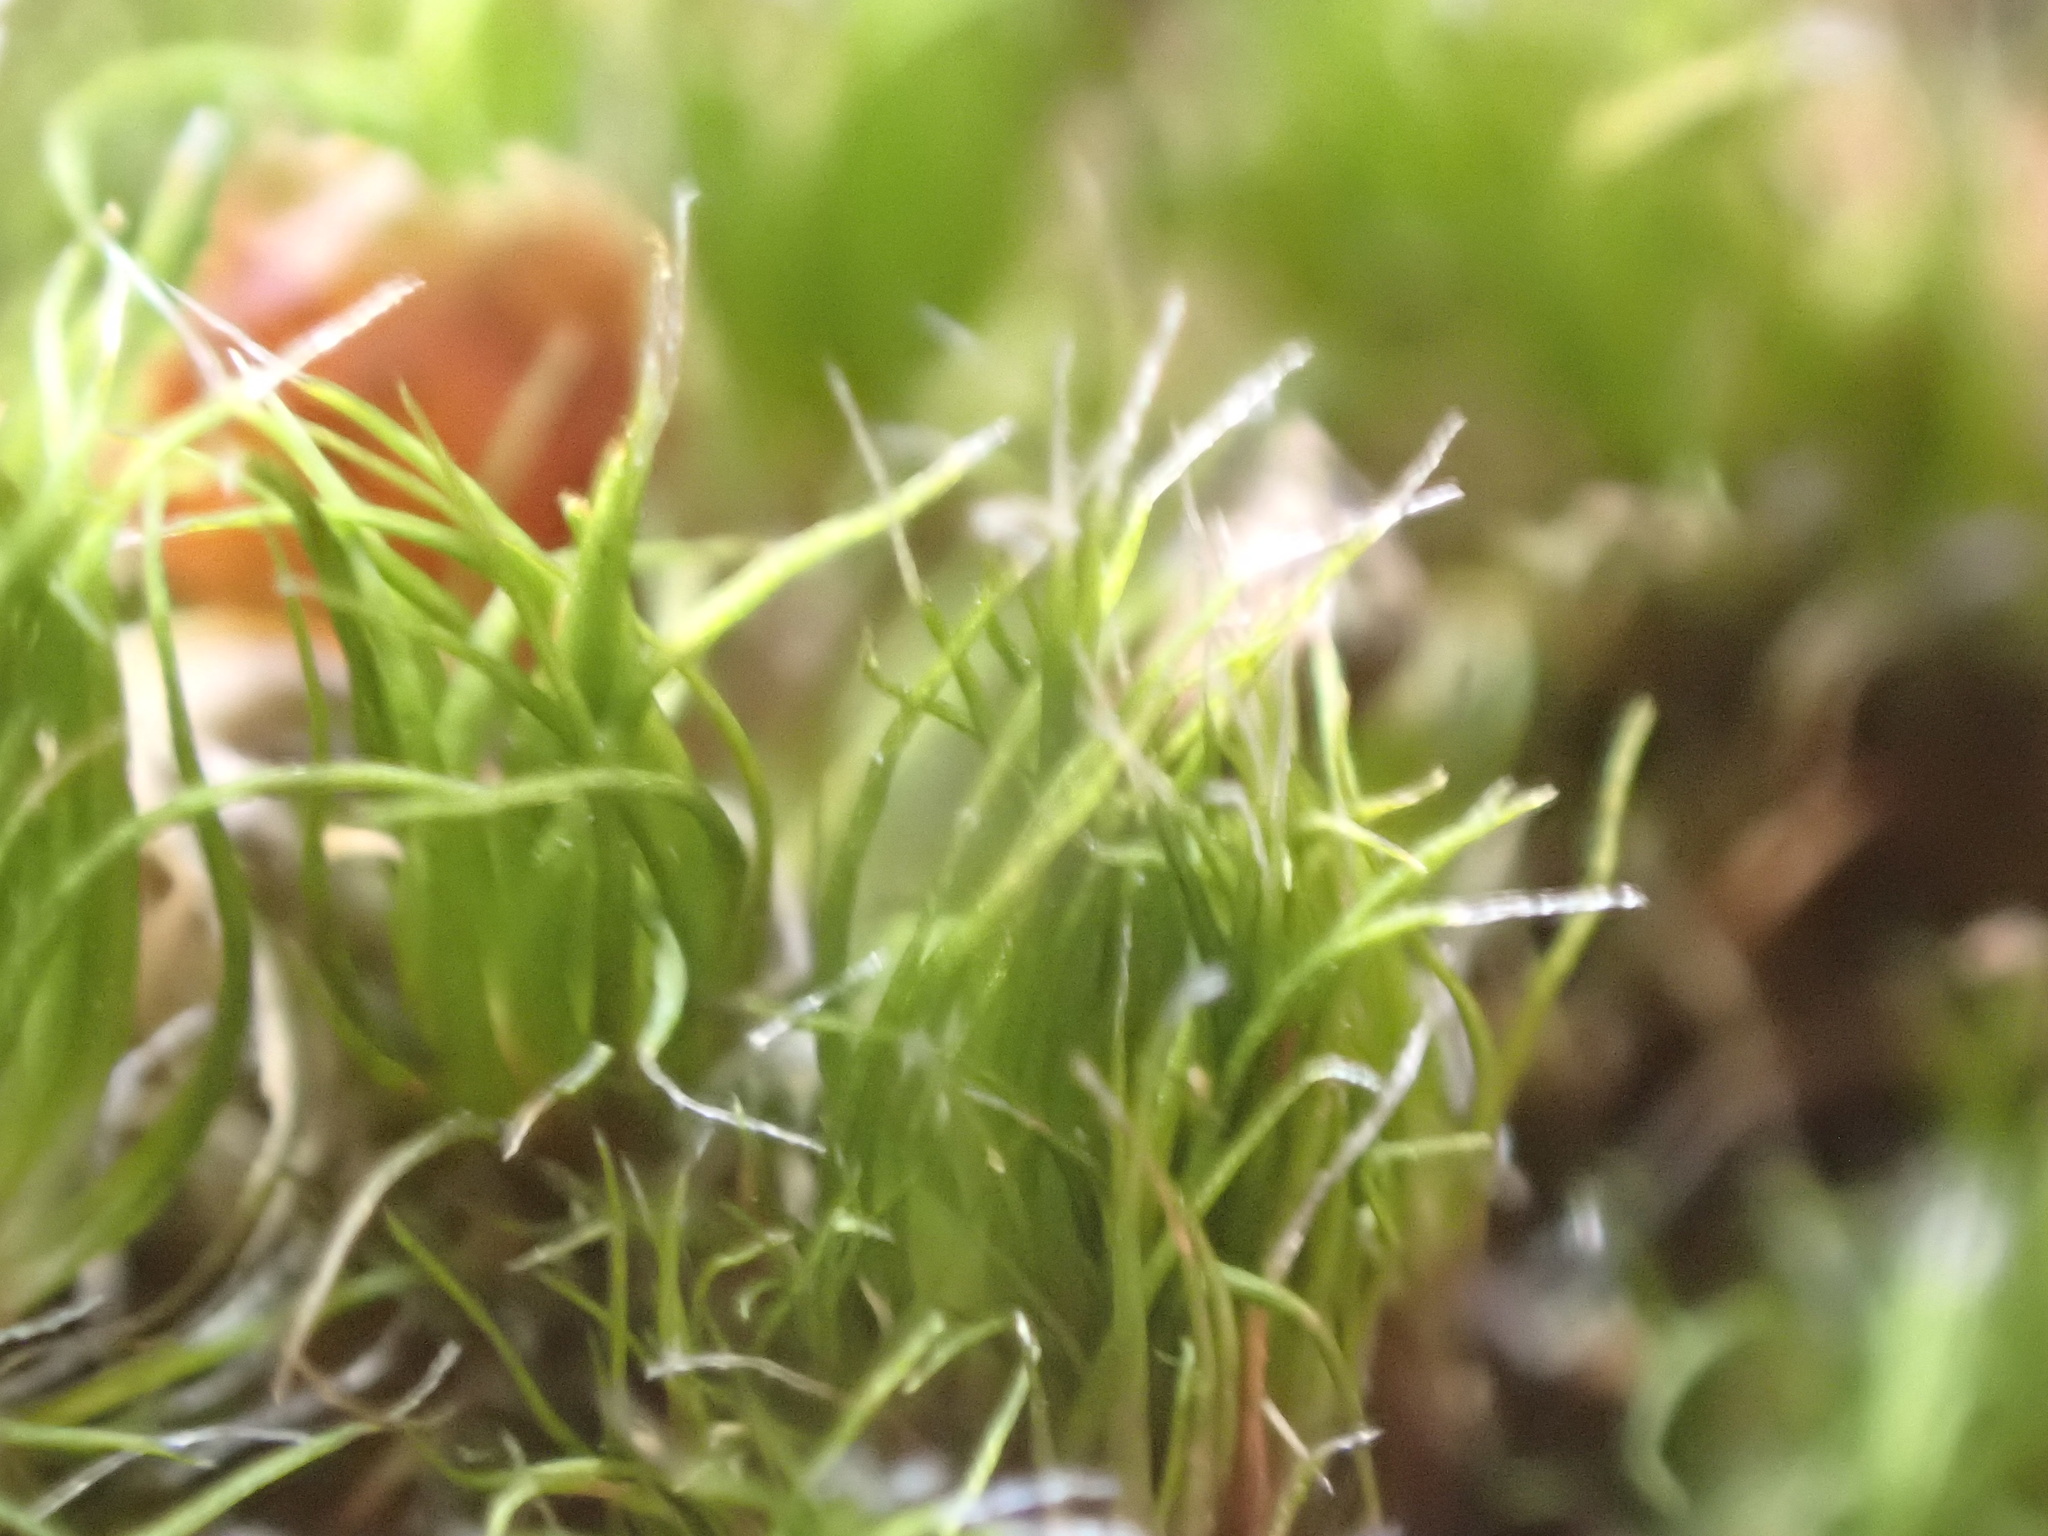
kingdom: Plantae
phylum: Bryophyta
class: Bryopsida
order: Dicranales
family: Leucobryaceae
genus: Campylopus
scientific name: Campylopus introflexus
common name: Heath star moss
